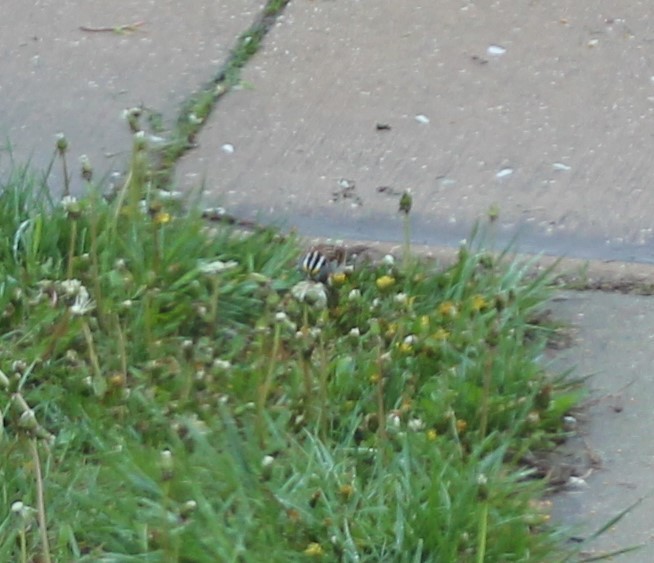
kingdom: Animalia
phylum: Chordata
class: Aves
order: Passeriformes
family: Passerellidae
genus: Zonotrichia
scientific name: Zonotrichia albicollis
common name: White-throated sparrow
